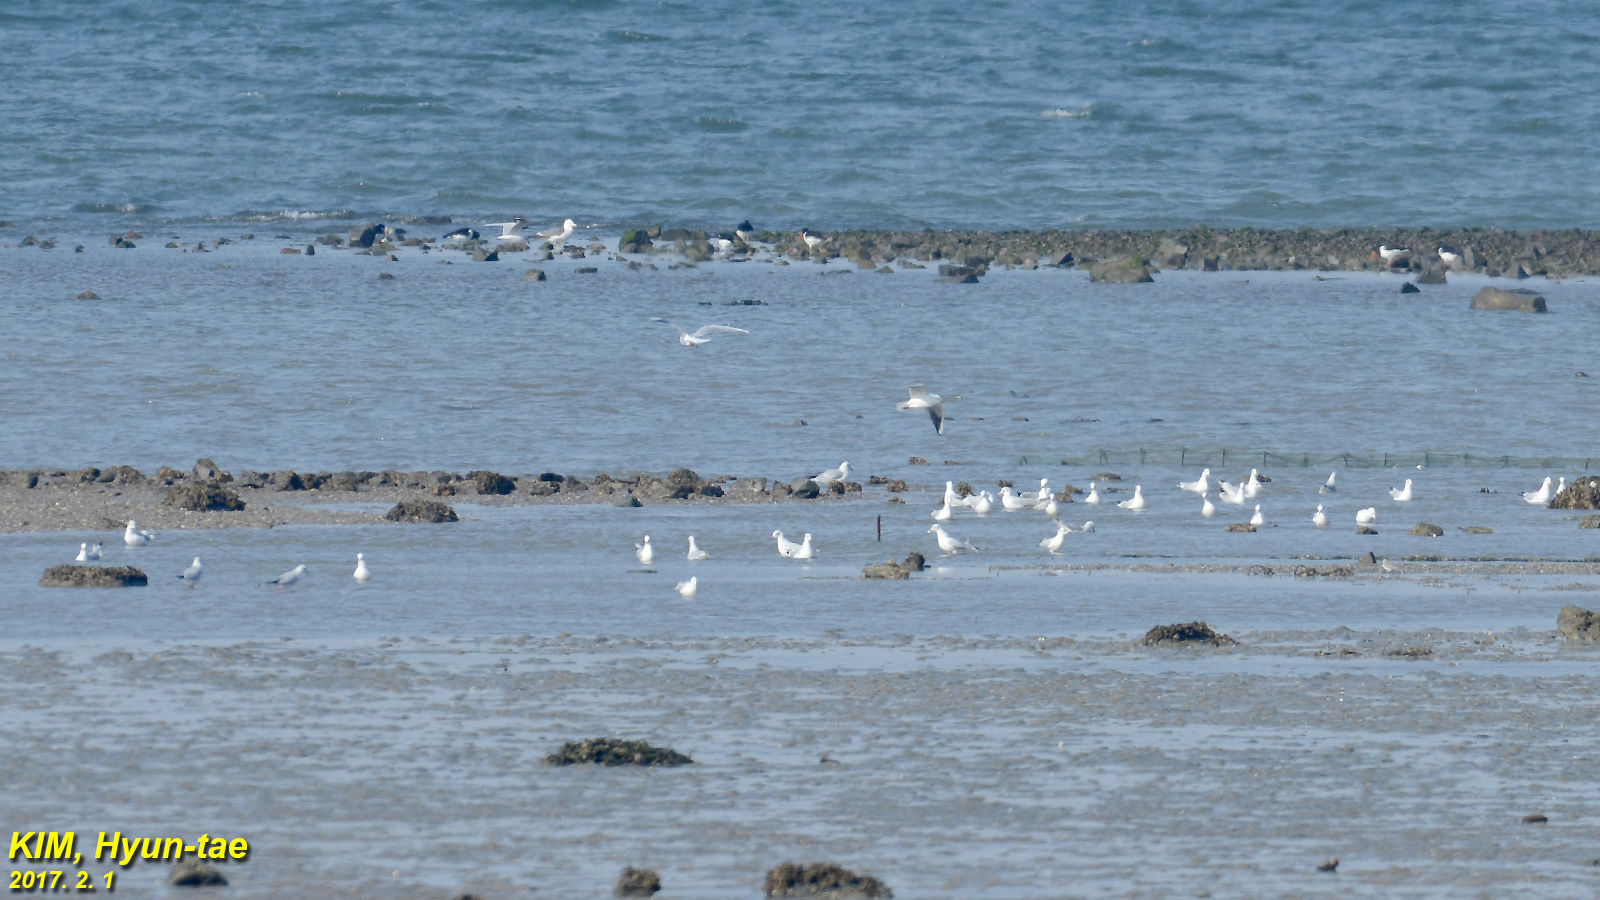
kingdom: Animalia
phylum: Chordata
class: Aves
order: Charadriiformes
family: Laridae
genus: Chroicocephalus
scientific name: Chroicocephalus ridibundus
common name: Black-headed gull
